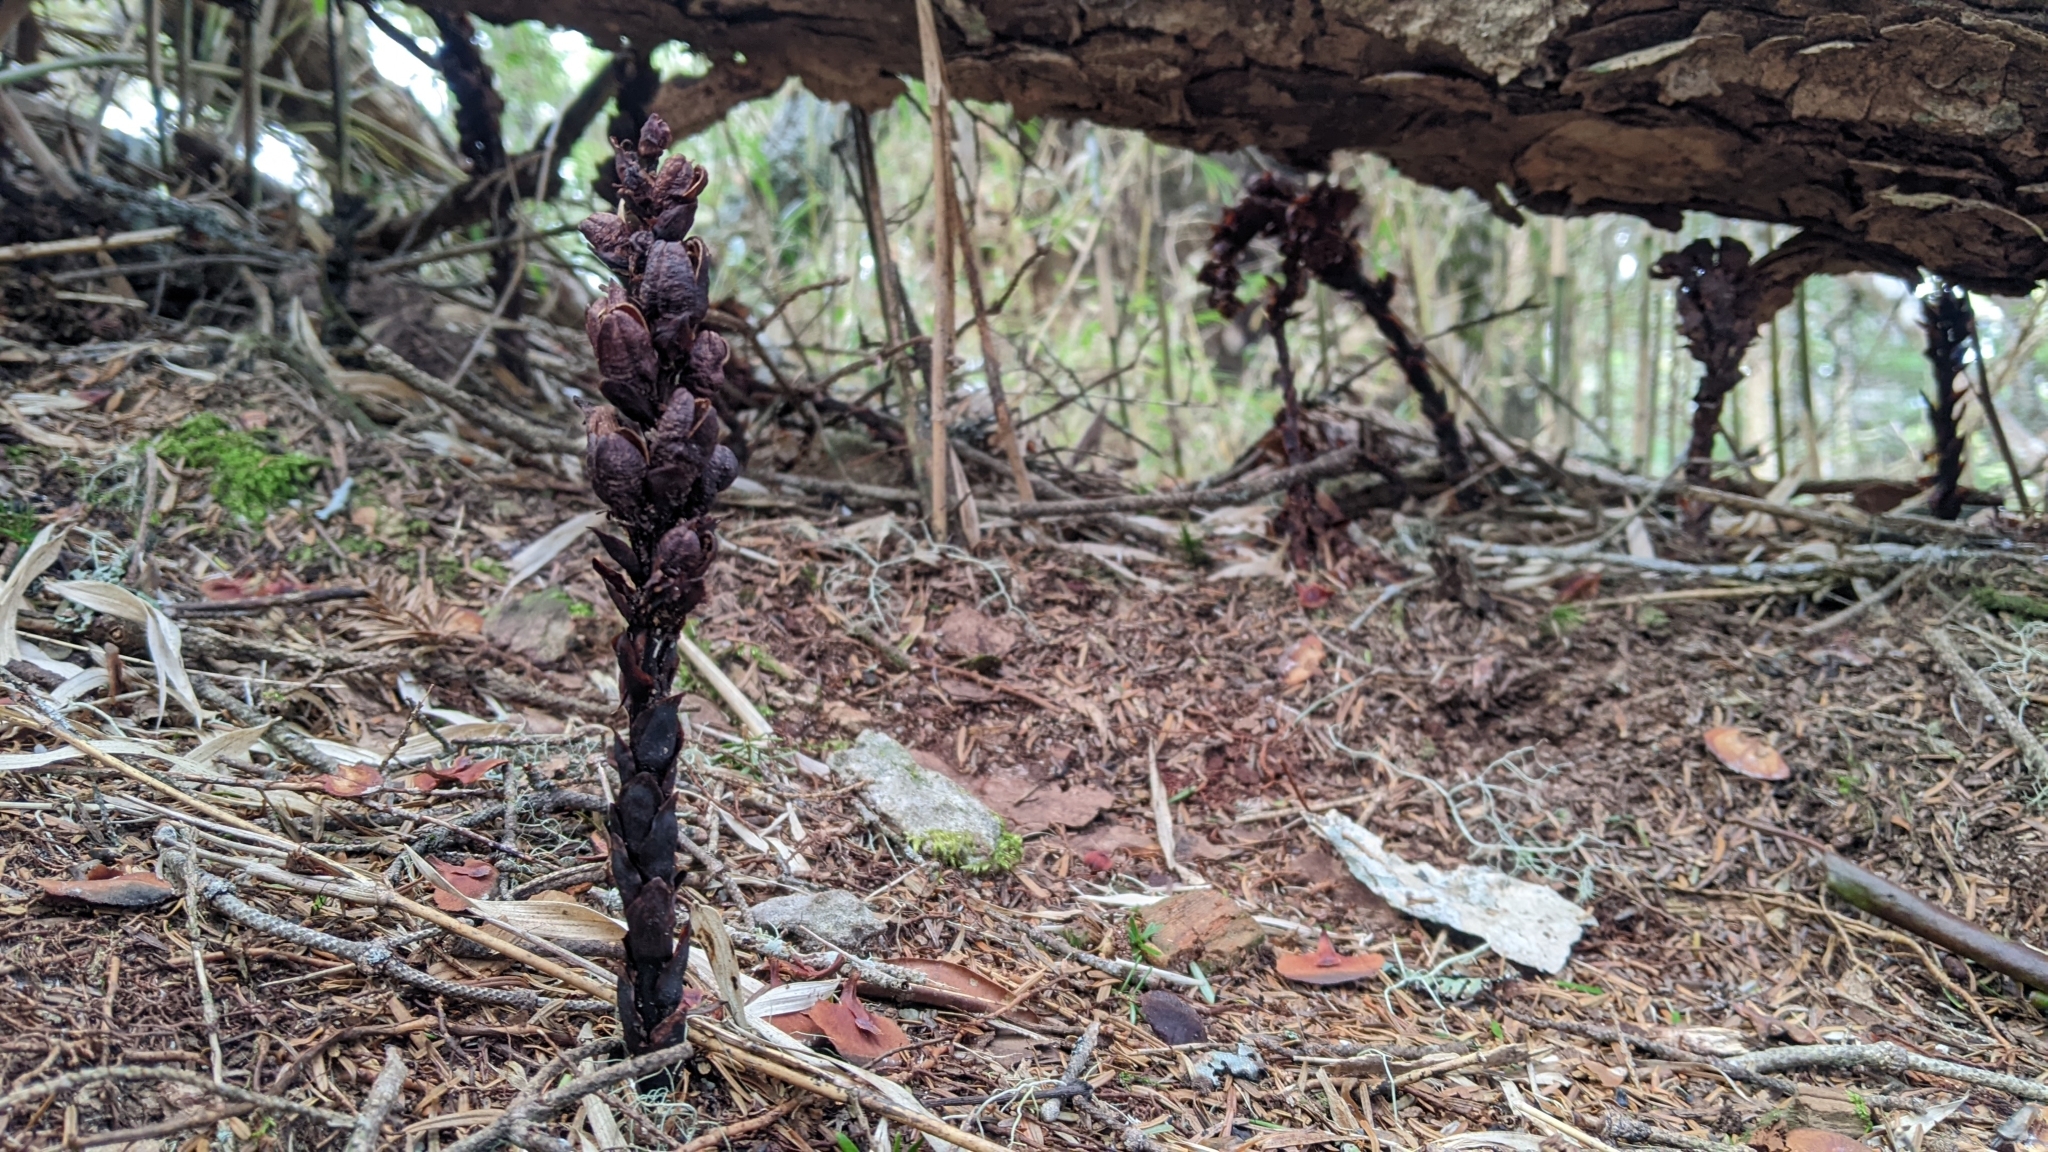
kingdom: Plantae
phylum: Tracheophyta
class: Magnoliopsida
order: Lamiales
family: Orobanchaceae
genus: Boschniakia
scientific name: Boschniakia himalaica
